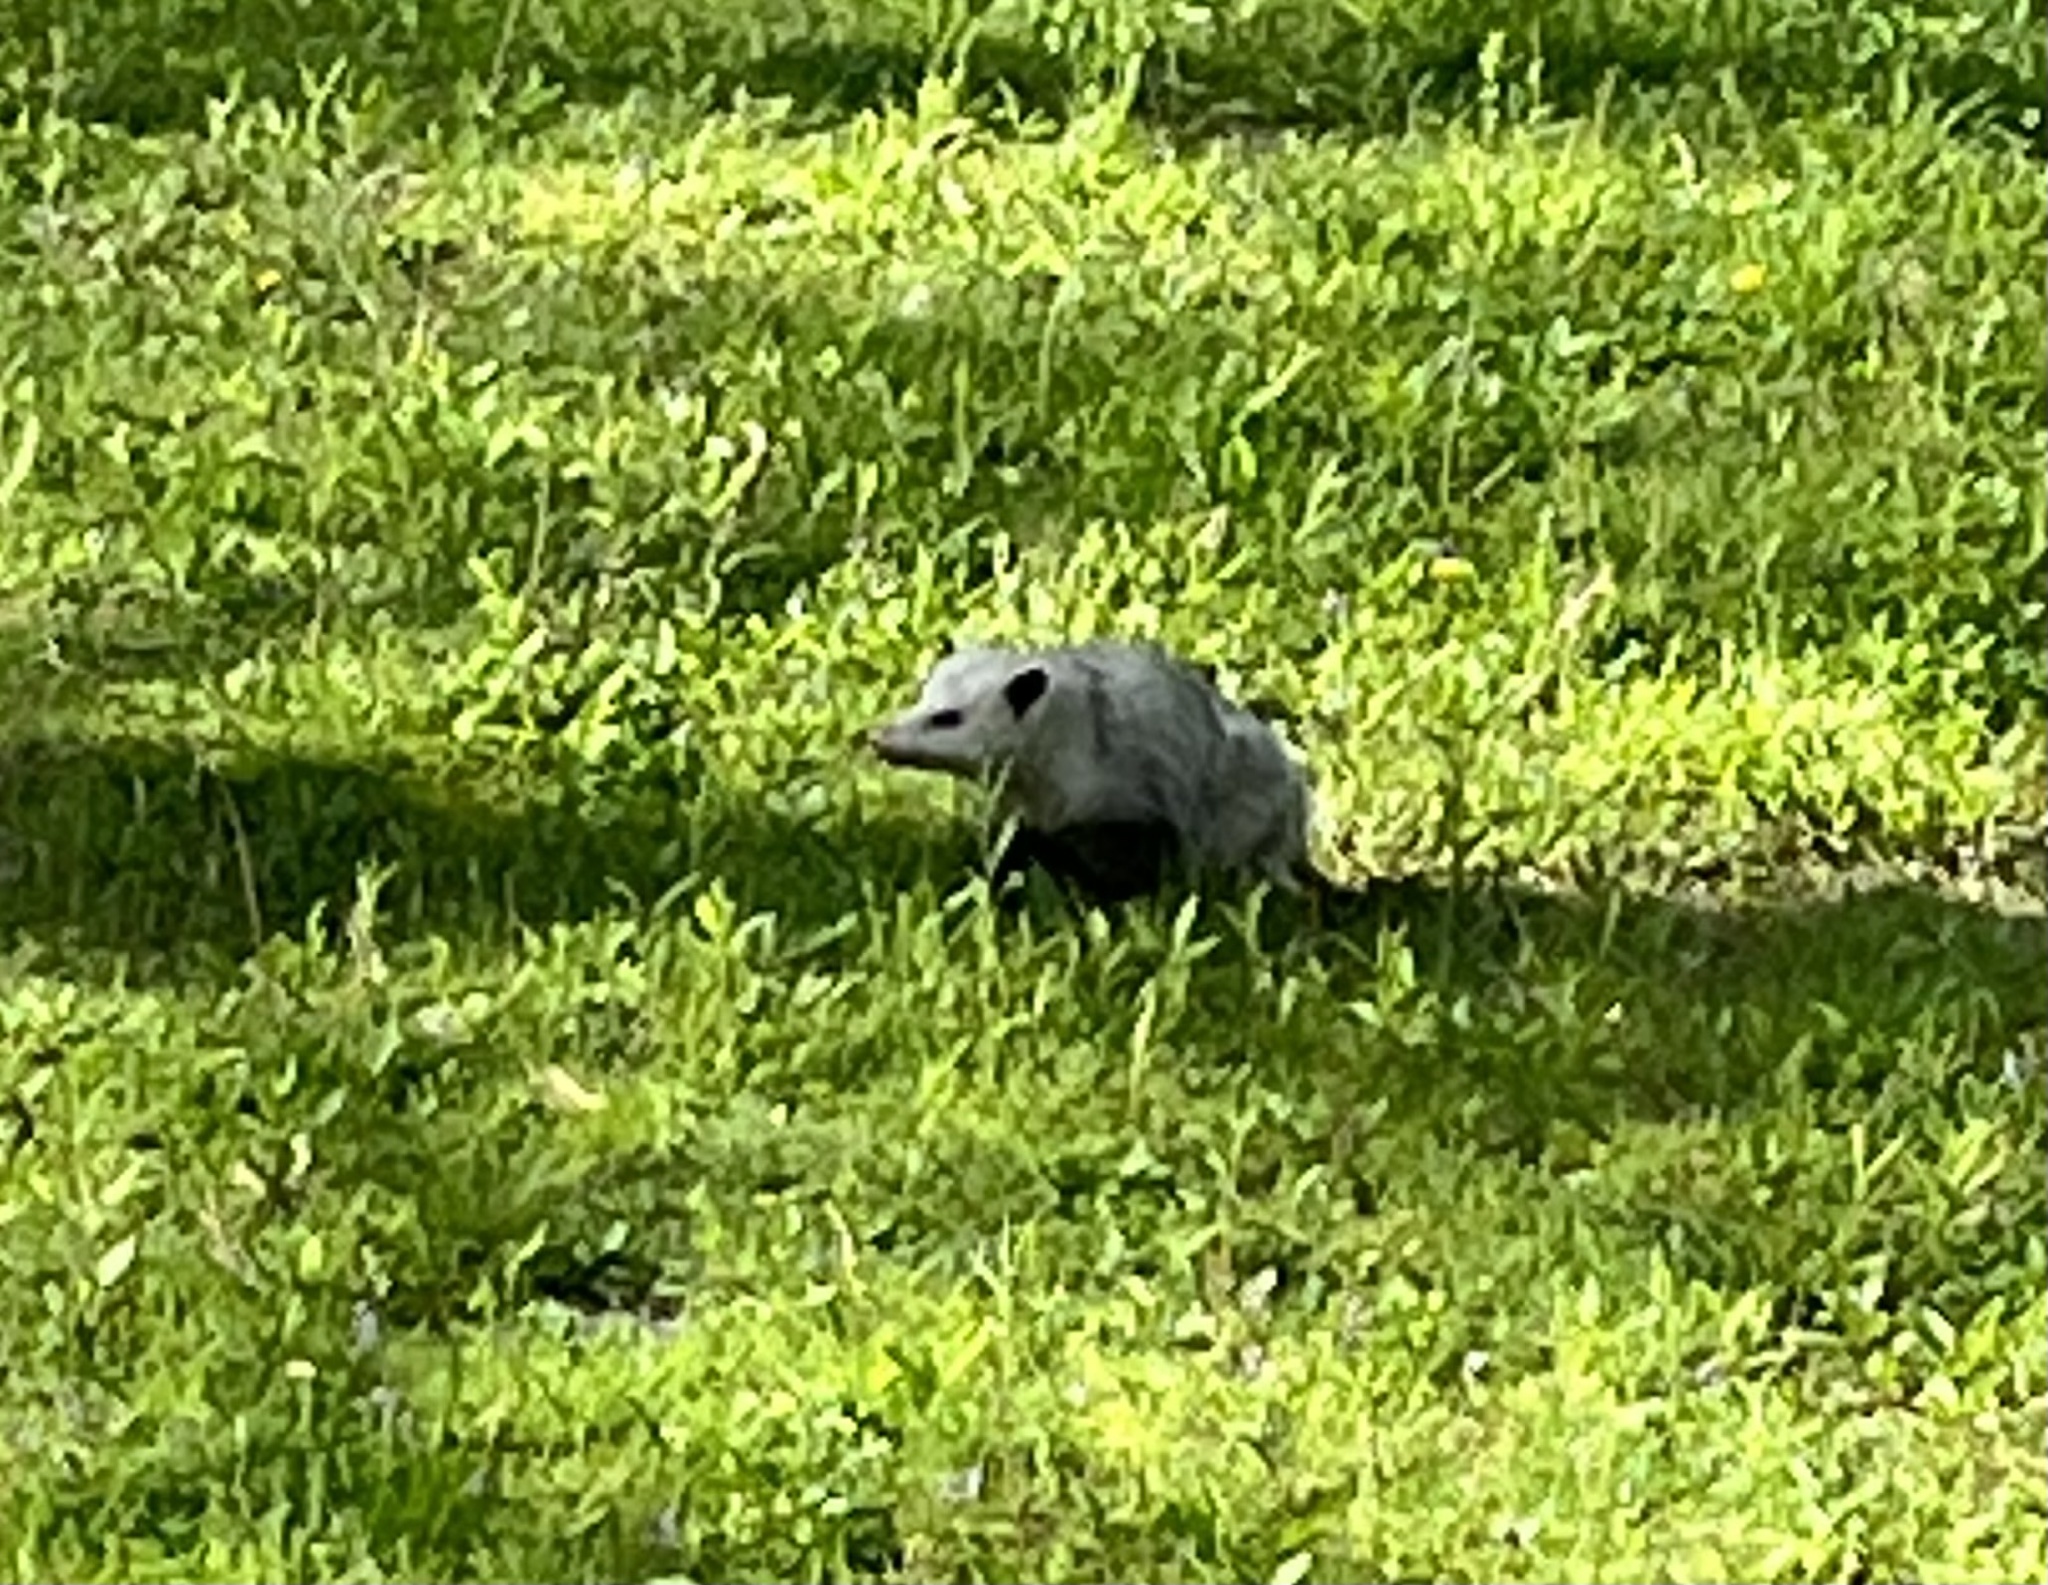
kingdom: Animalia
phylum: Chordata
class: Mammalia
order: Didelphimorphia
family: Didelphidae
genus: Didelphis
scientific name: Didelphis virginiana
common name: Virginia opossum
